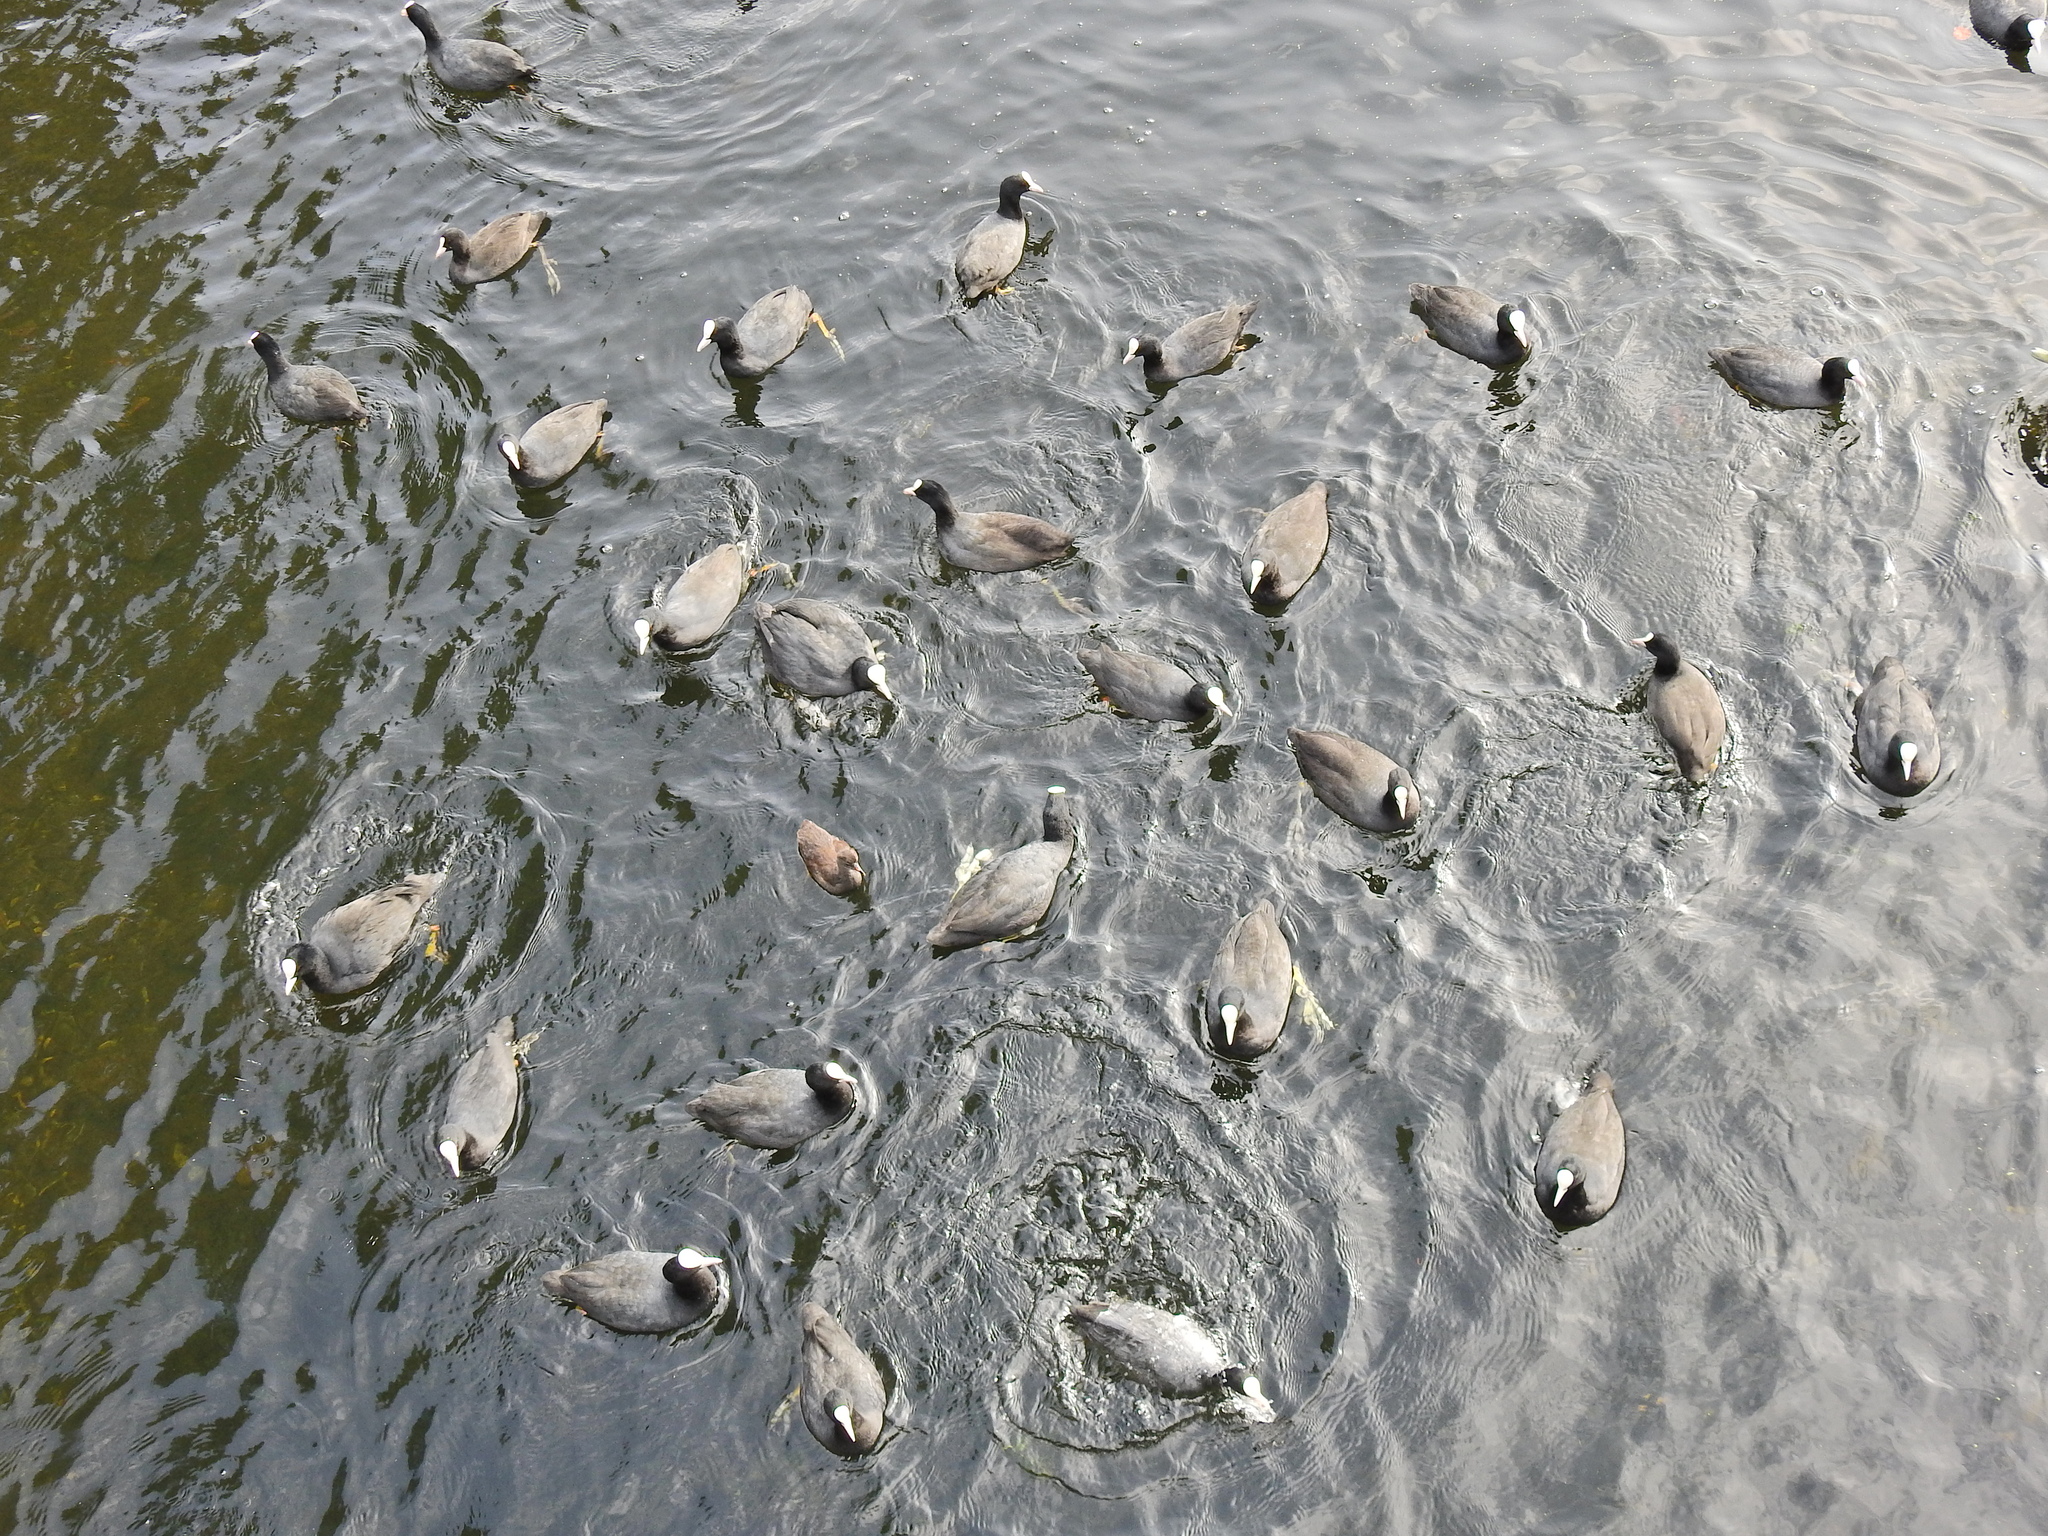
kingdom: Animalia
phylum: Chordata
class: Aves
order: Gruiformes
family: Rallidae
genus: Fulica
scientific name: Fulica atra
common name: Eurasian coot
